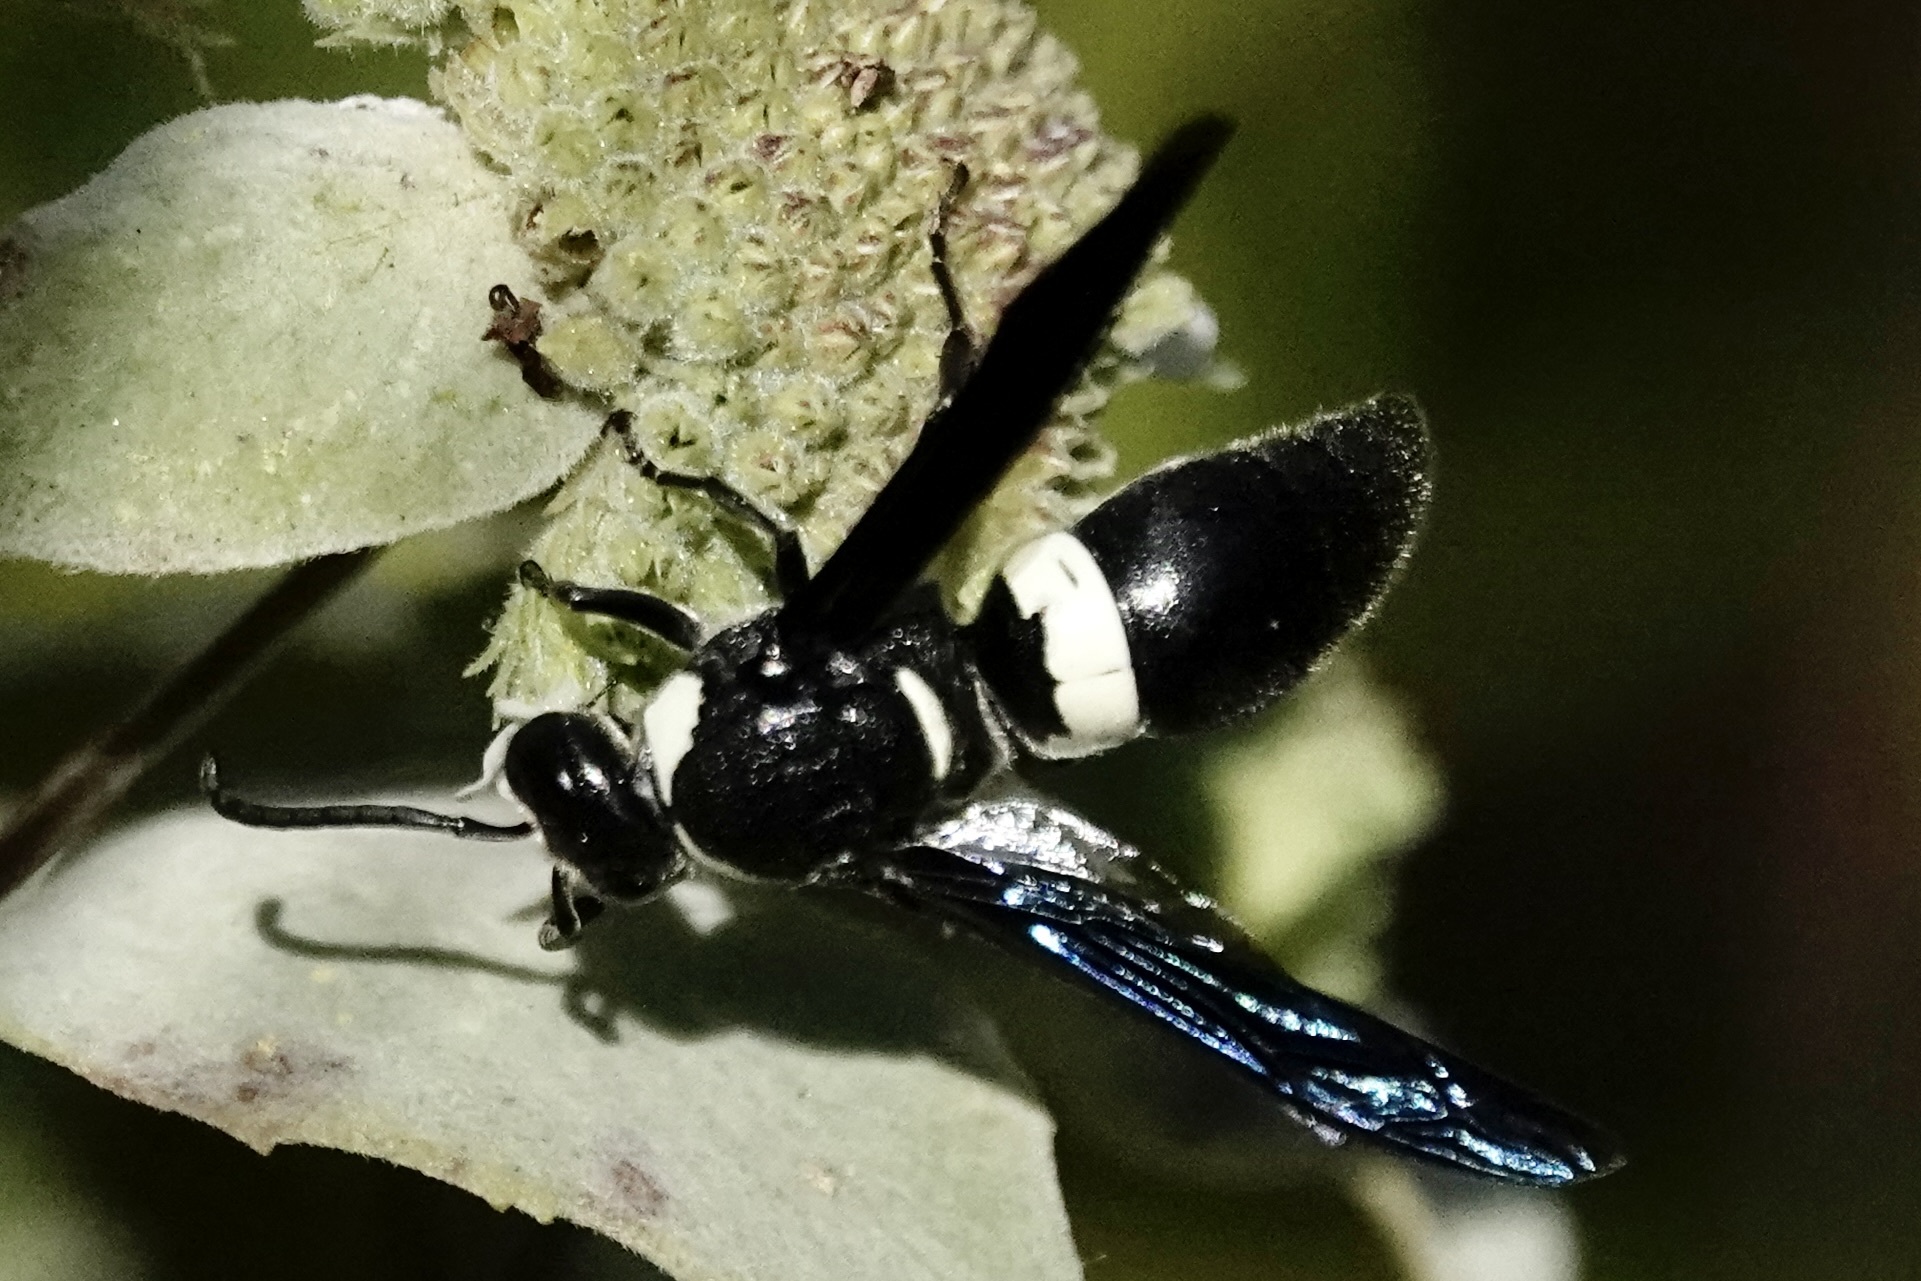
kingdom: Animalia
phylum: Arthropoda
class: Insecta
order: Hymenoptera
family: Eumenidae
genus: Monobia
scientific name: Monobia quadridens
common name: Four-toothed mason wasp
